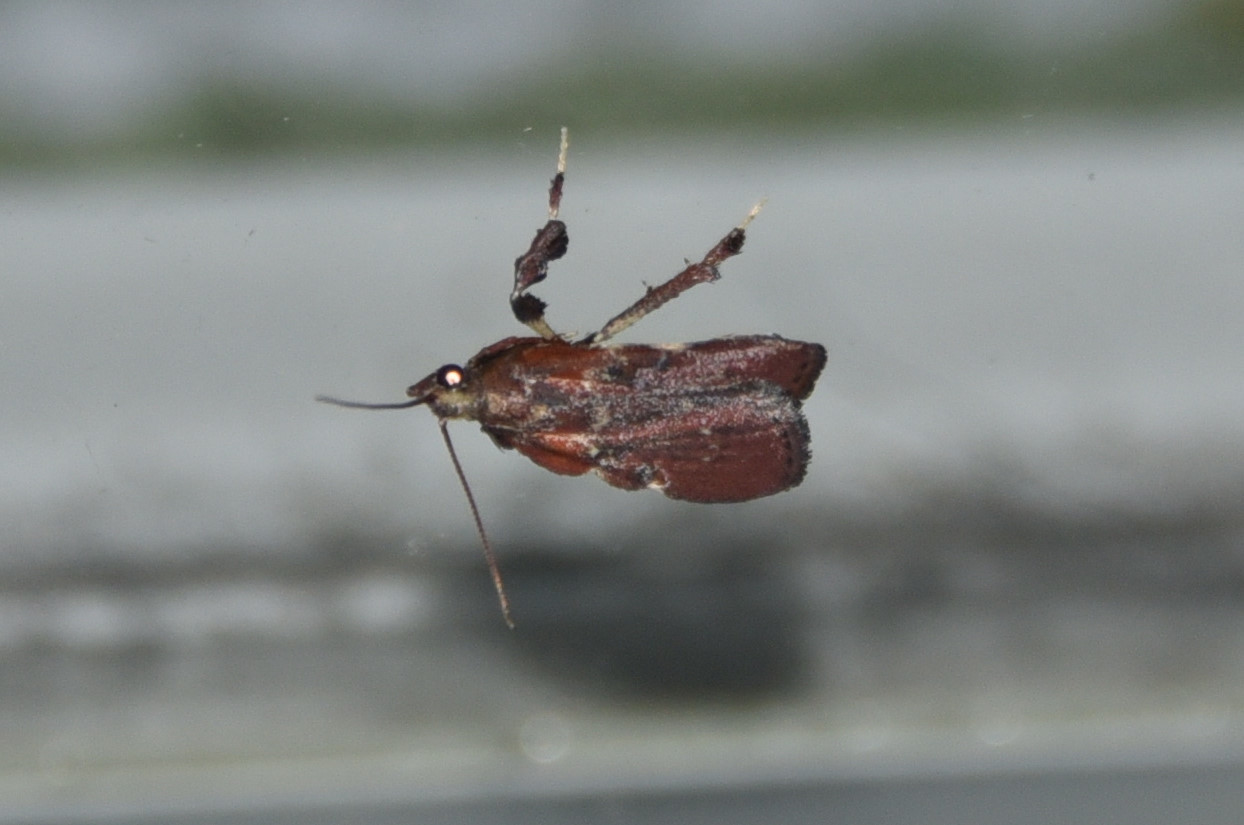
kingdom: Animalia
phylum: Arthropoda
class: Insecta
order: Lepidoptera
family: Pyralidae
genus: Galasa
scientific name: Galasa nigrinodis
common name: Boxwood leaftier moth
